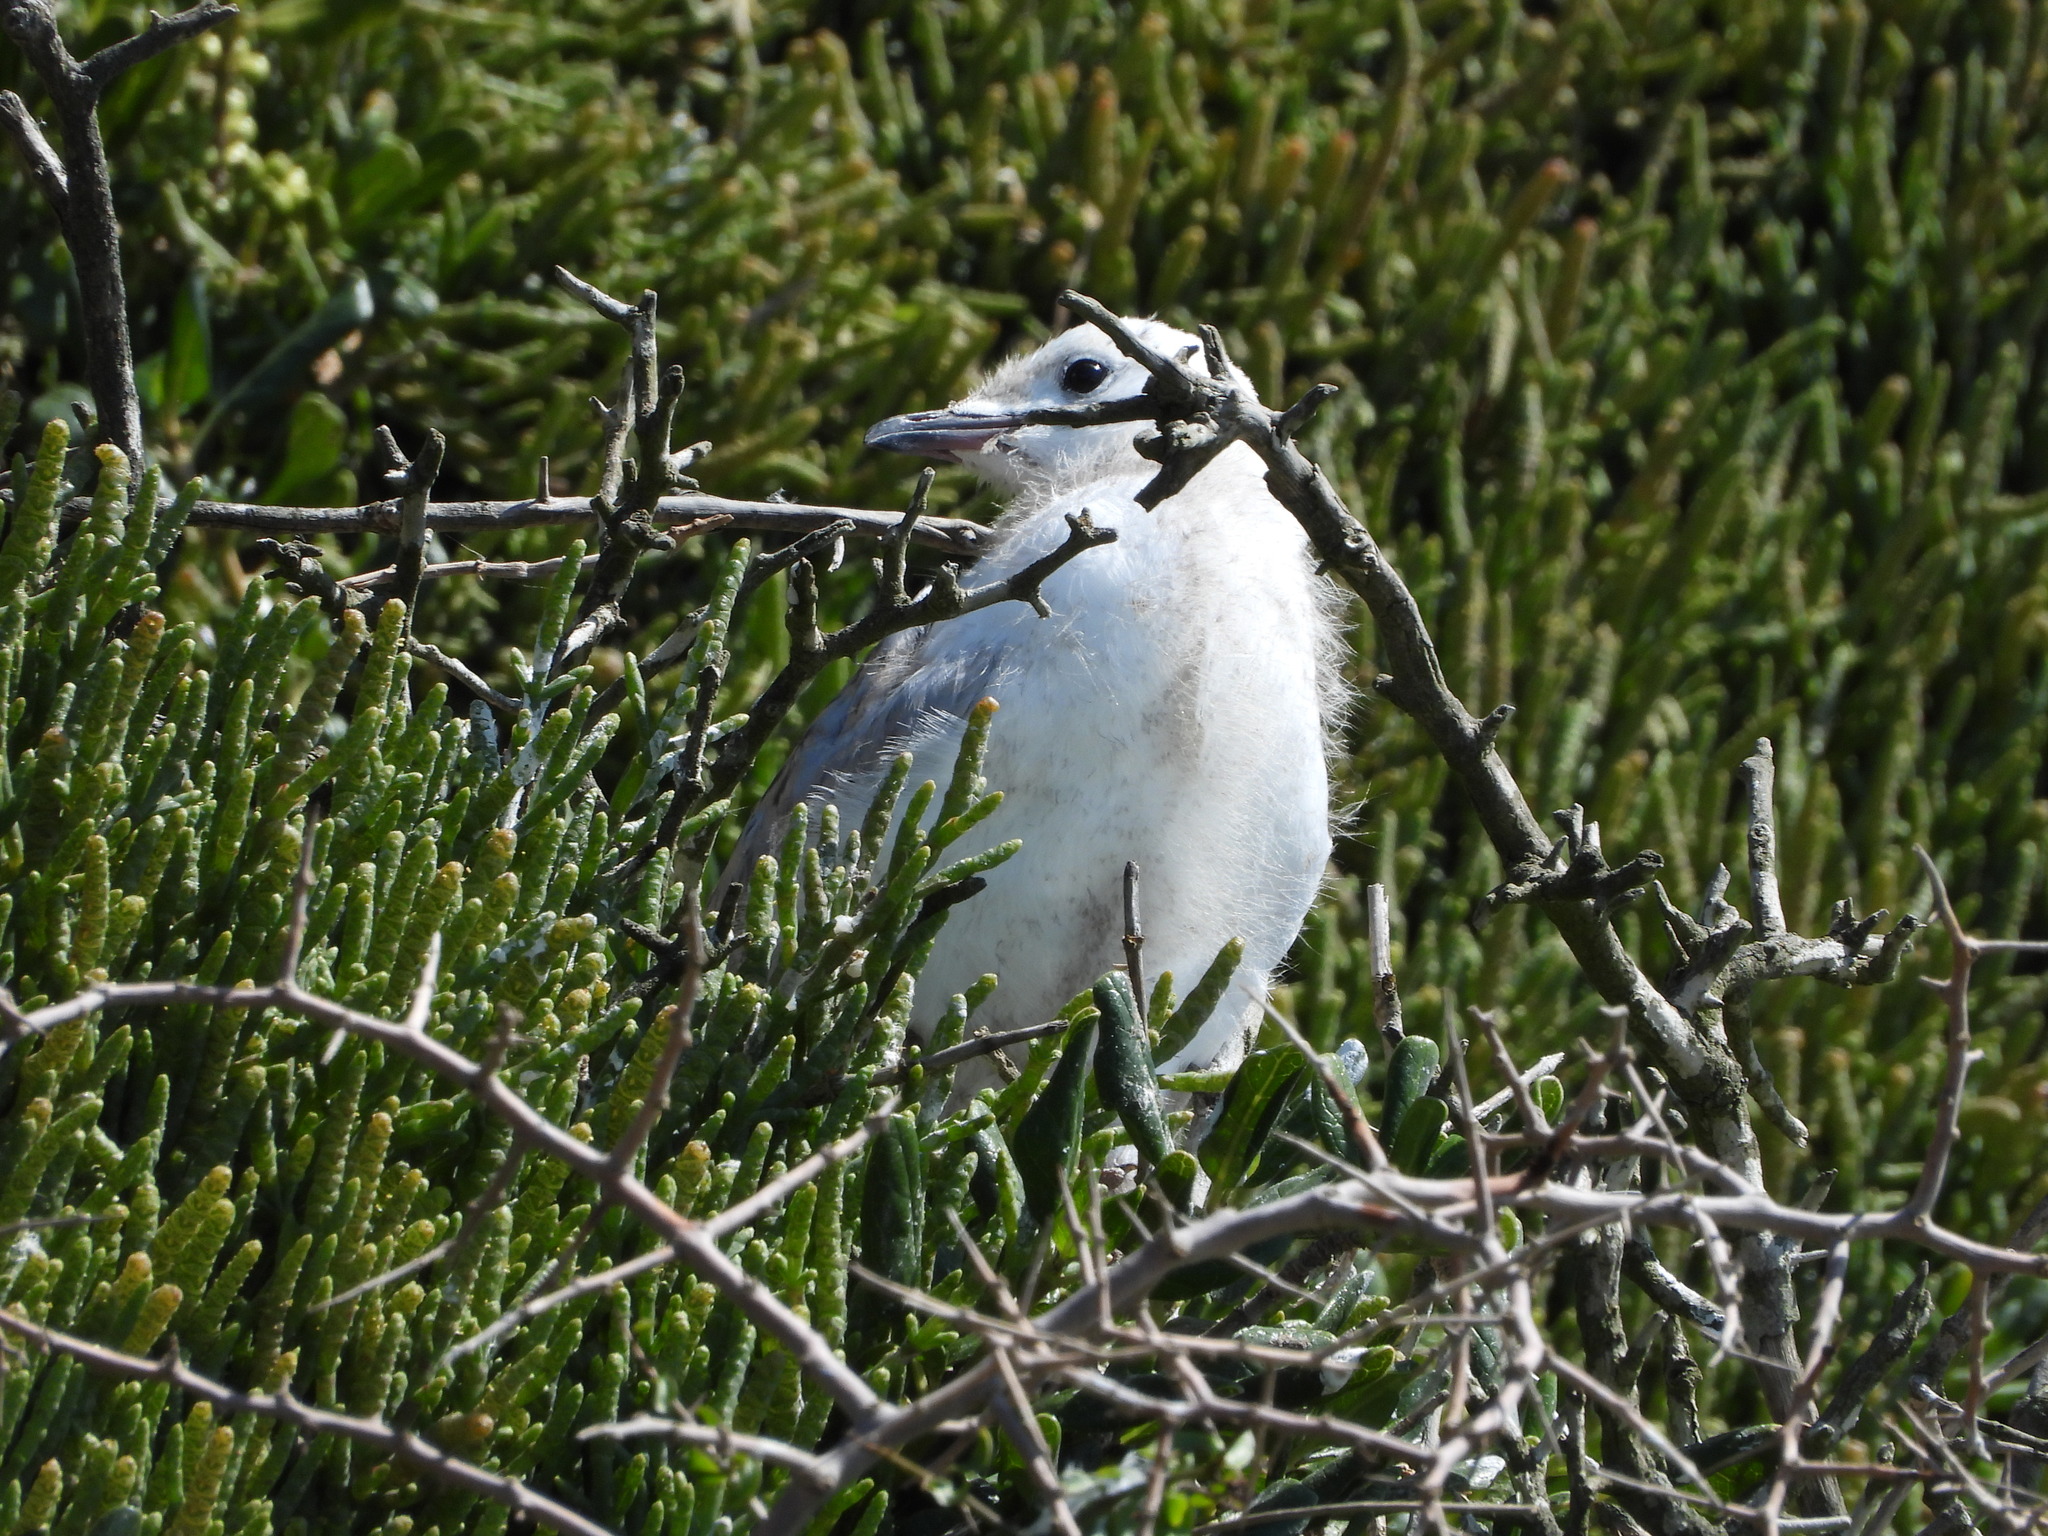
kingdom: Animalia
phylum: Chordata
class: Aves
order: Charadriiformes
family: Laridae
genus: Chroicocephalus
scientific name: Chroicocephalus novaehollandiae
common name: Silver gull
